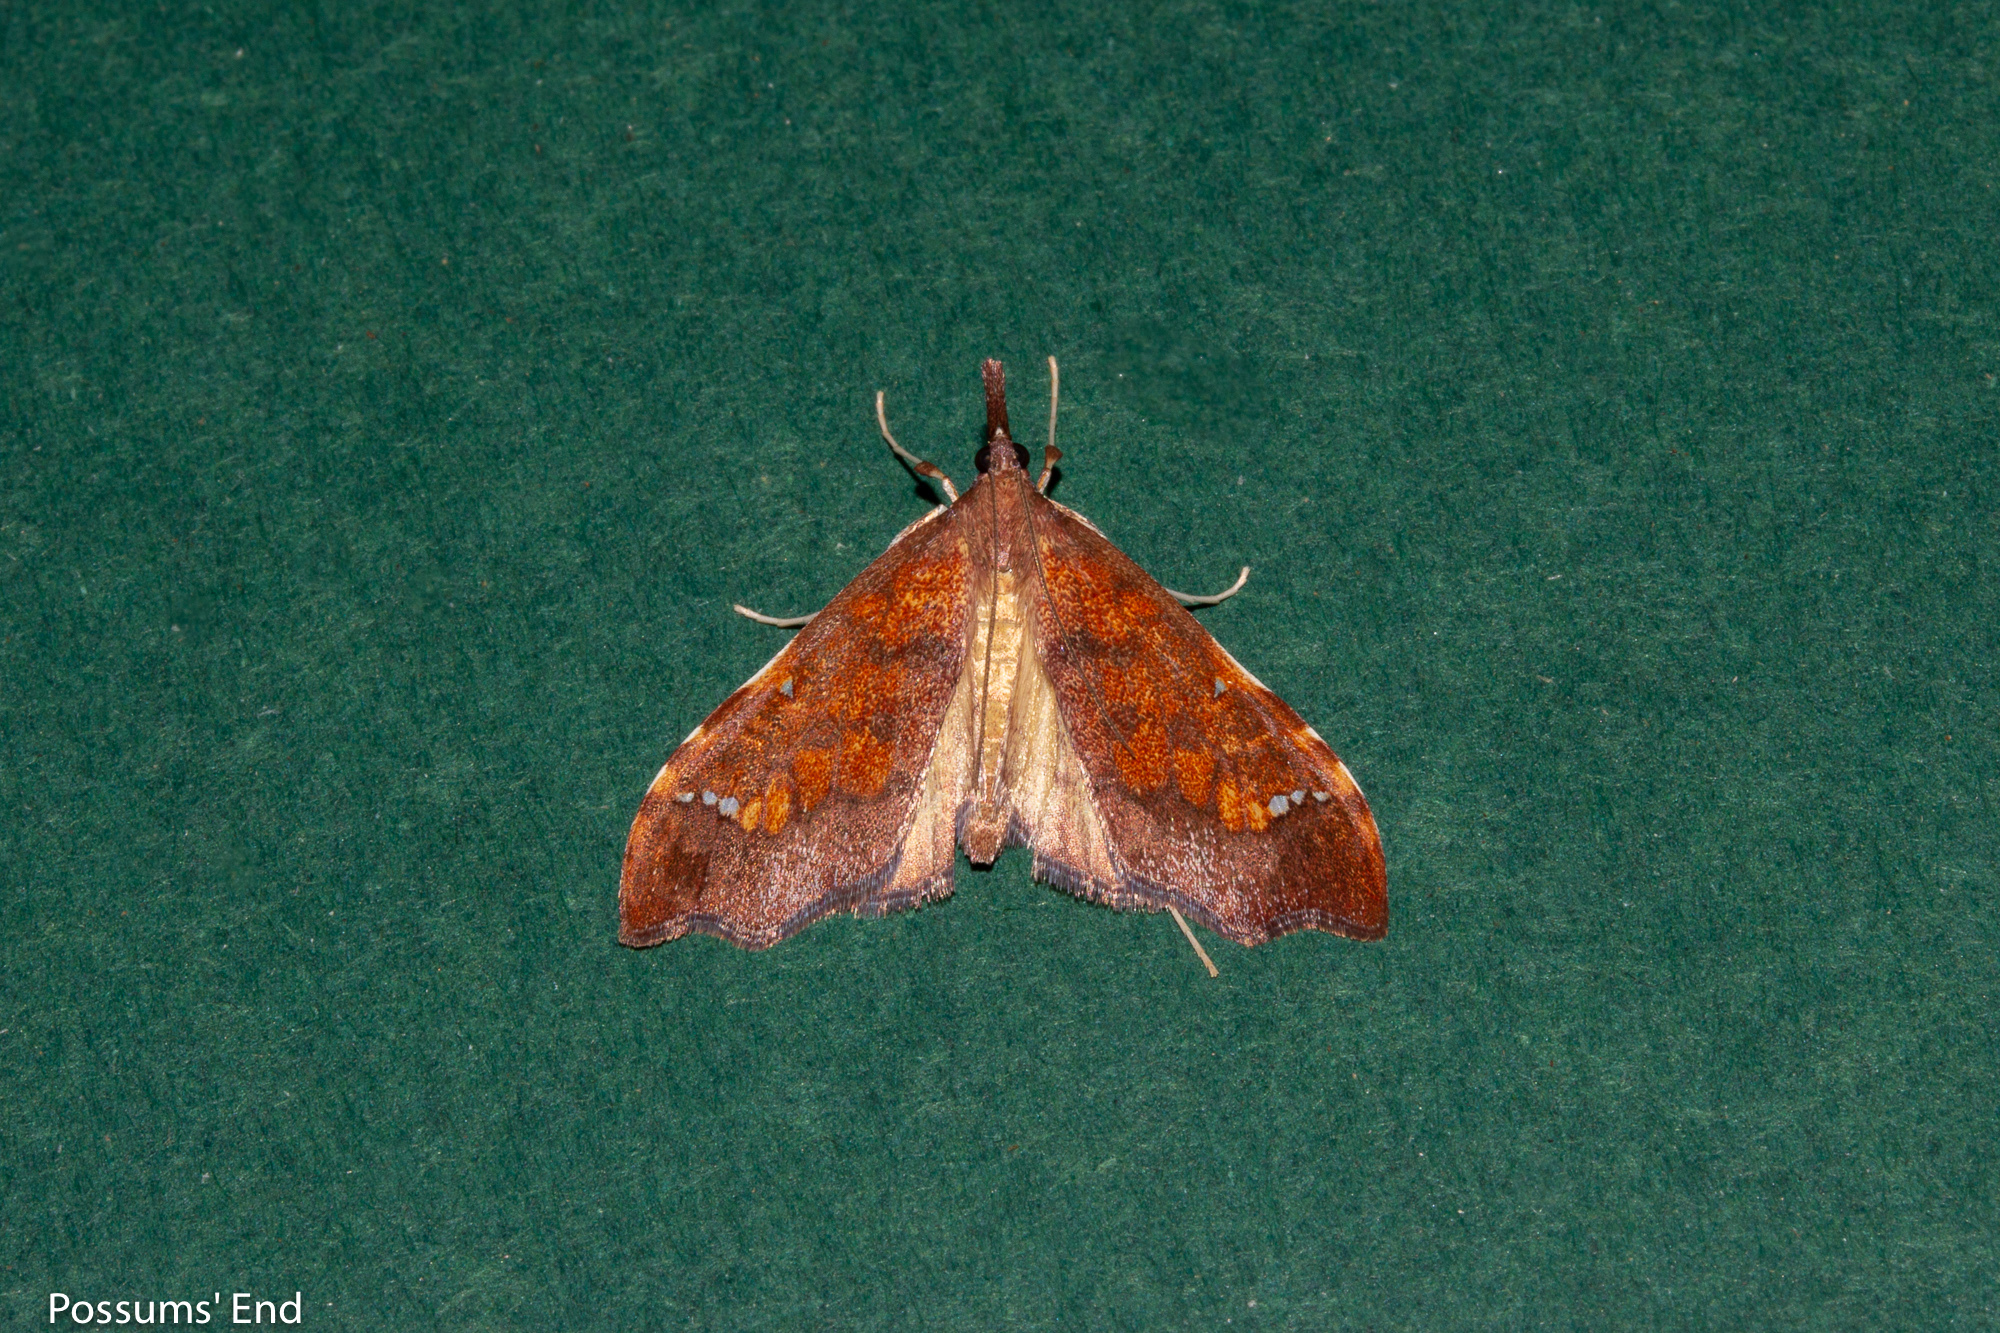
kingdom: Animalia
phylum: Arthropoda
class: Insecta
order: Lepidoptera
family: Crambidae
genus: Deana
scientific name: Deana hybreasalis
